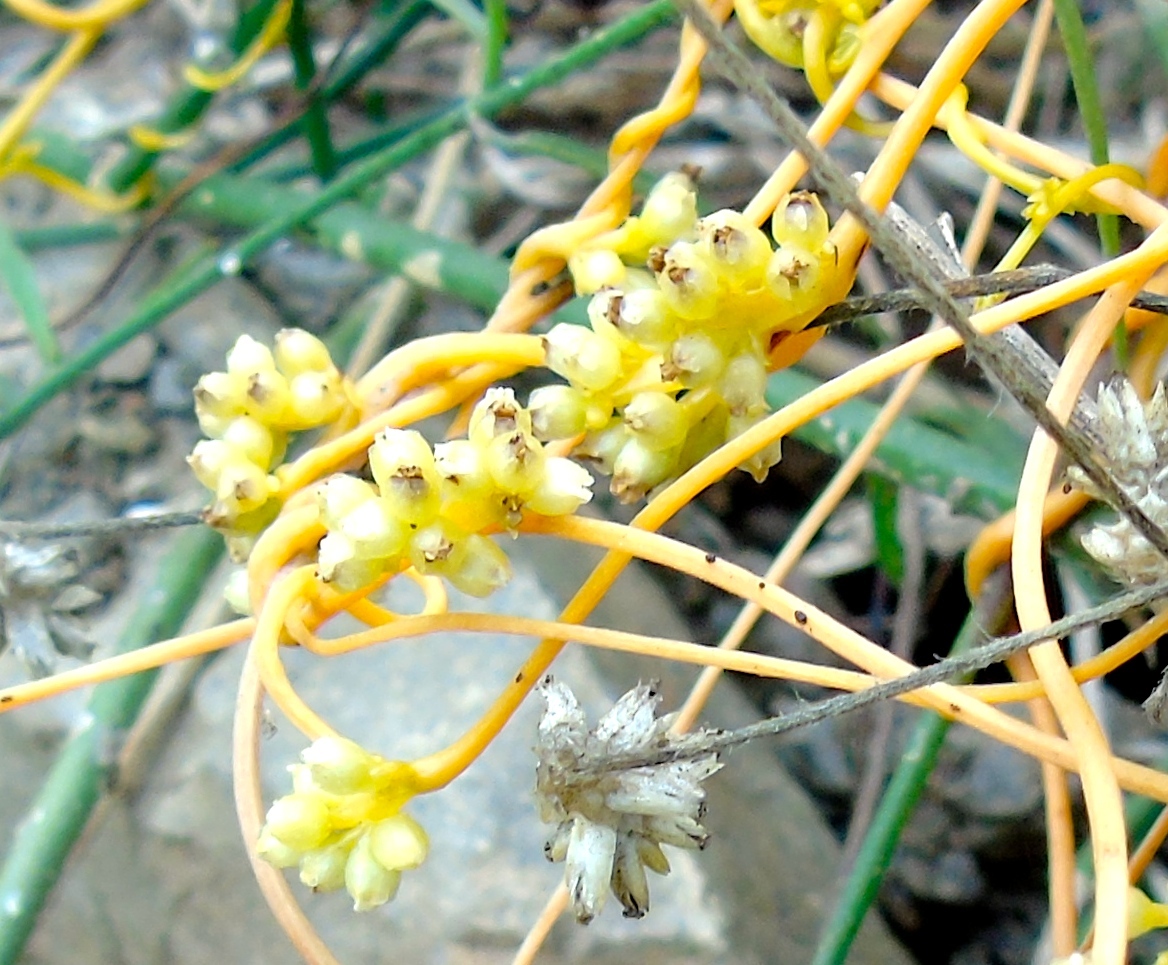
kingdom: Plantae
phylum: Tracheophyta
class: Magnoliopsida
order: Solanales
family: Convolvulaceae
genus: Cuscuta
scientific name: Cuscuta tinctoria
